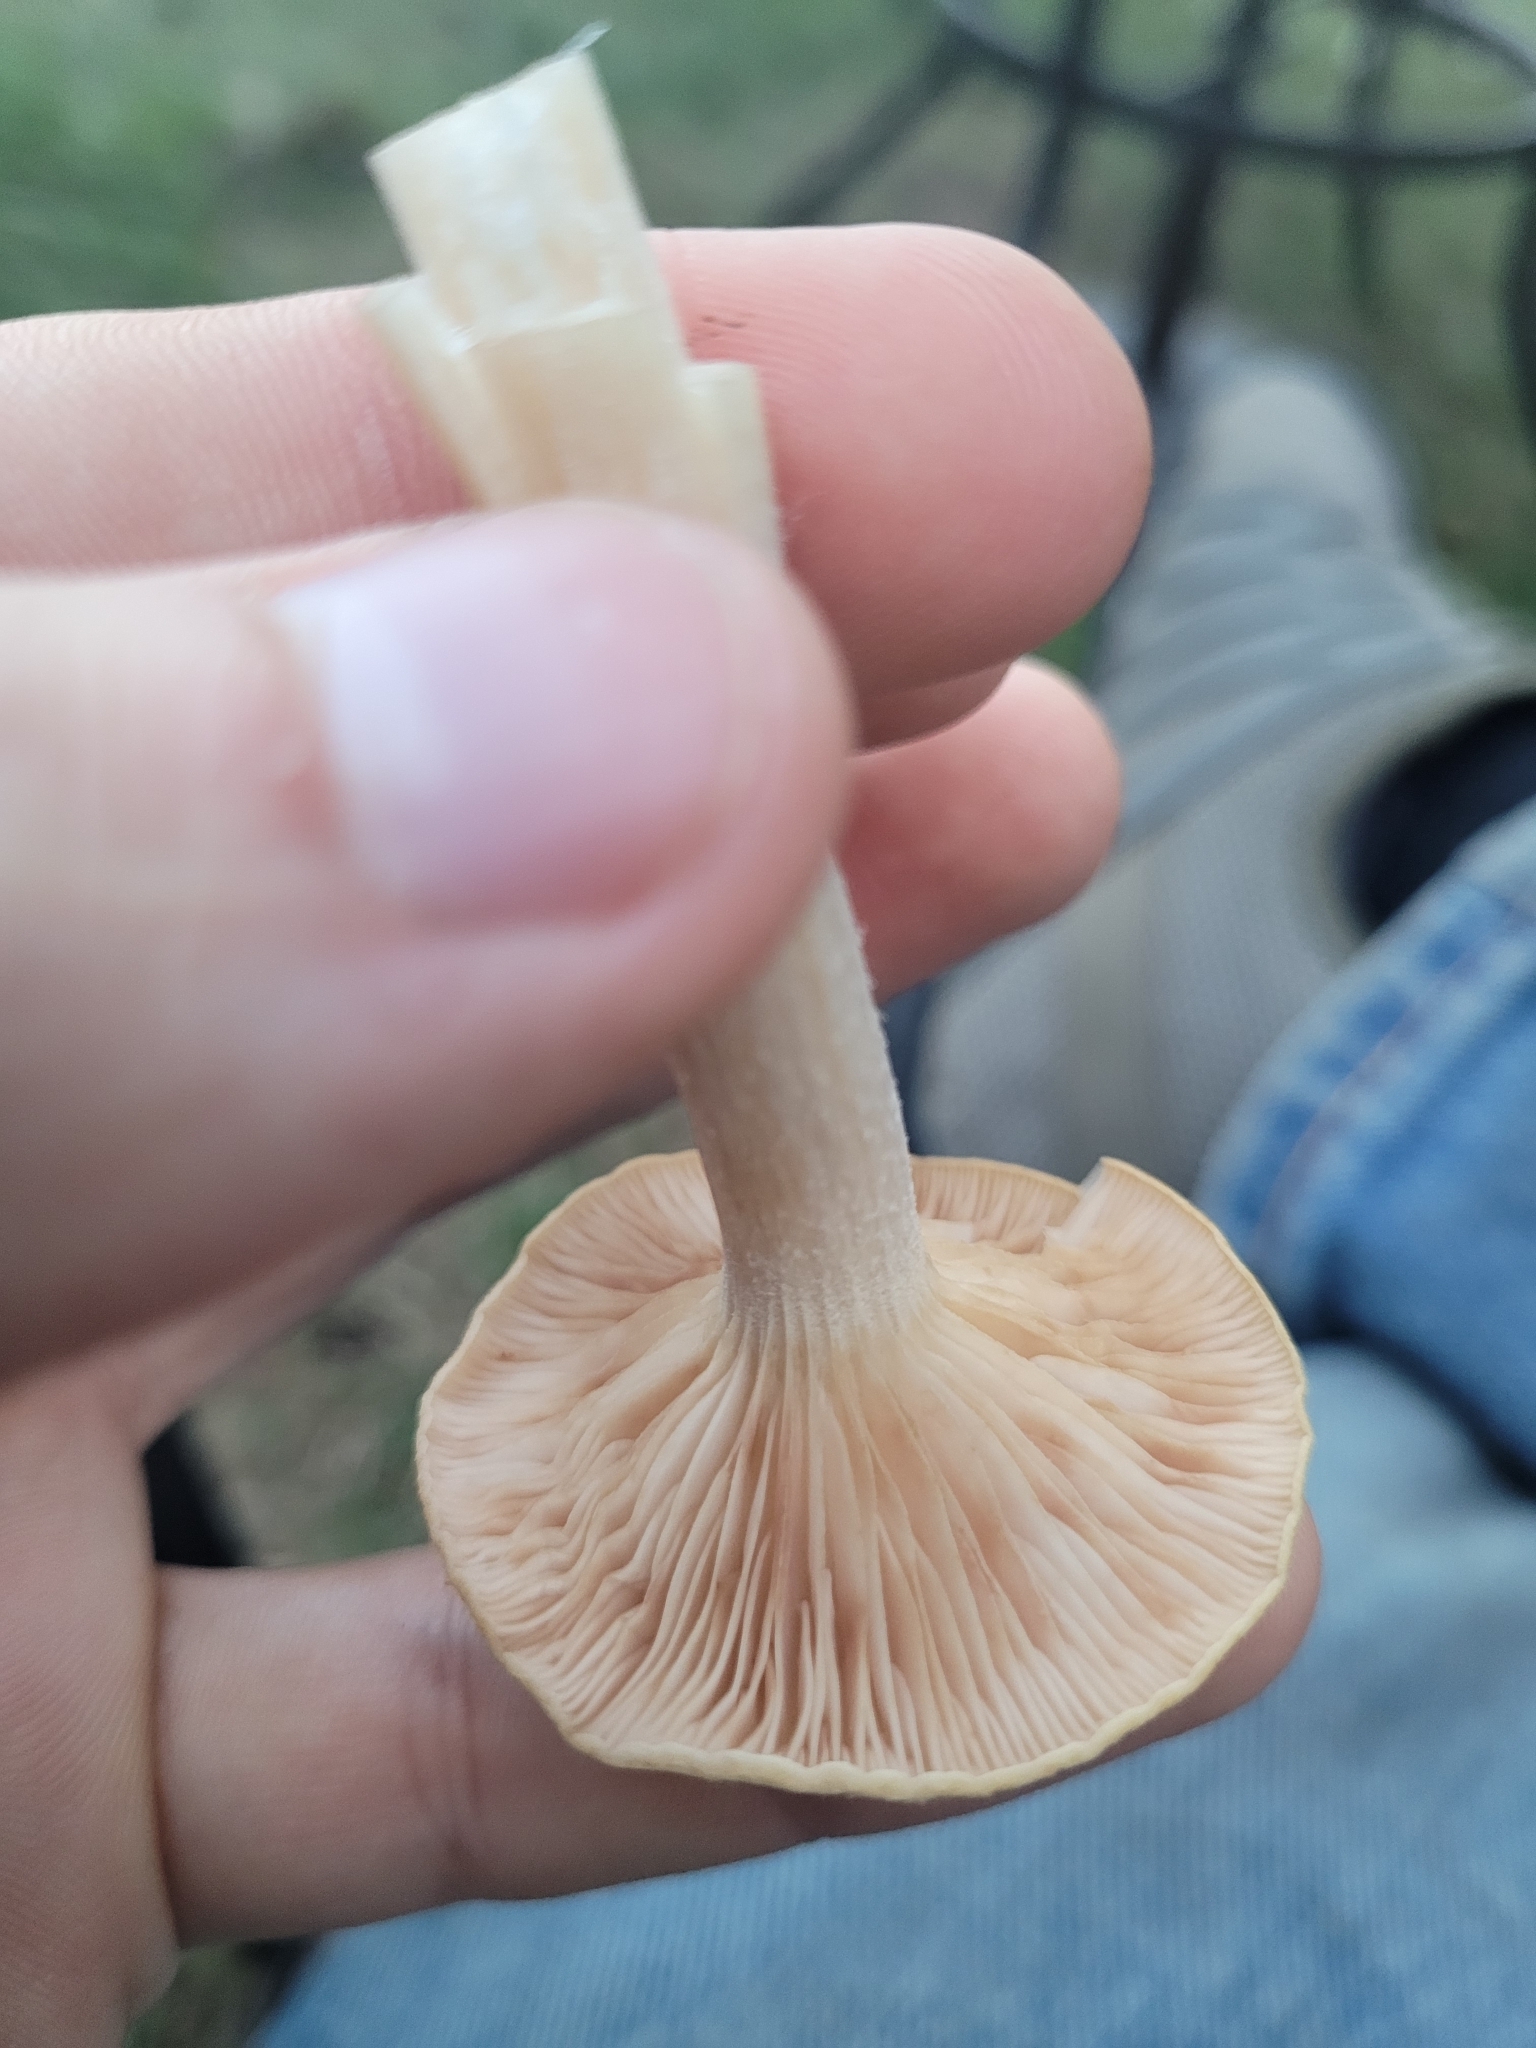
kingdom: Fungi
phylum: Basidiomycota
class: Agaricomycetes
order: Agaricales
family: Physalacriaceae
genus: Desarmillaria
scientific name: Desarmillaria caespitosa
